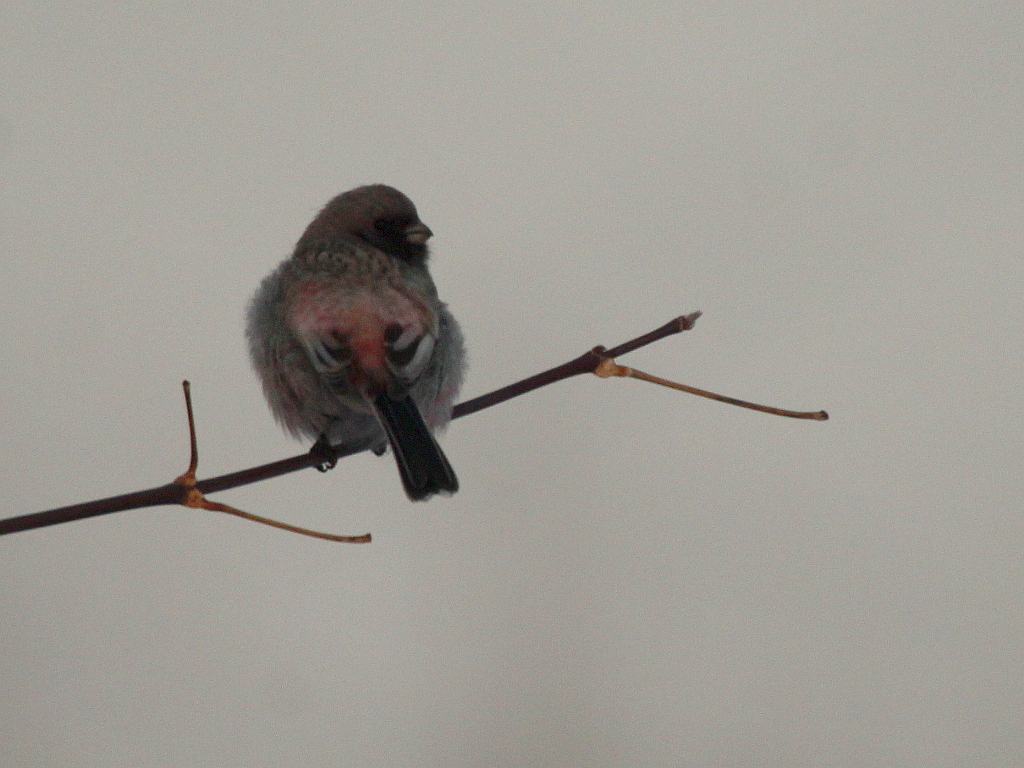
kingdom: Animalia
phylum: Chordata
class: Aves
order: Passeriformes
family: Fringillidae
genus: Carpodacus
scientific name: Carpodacus sibiricus
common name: Long-tailed rosefinch
